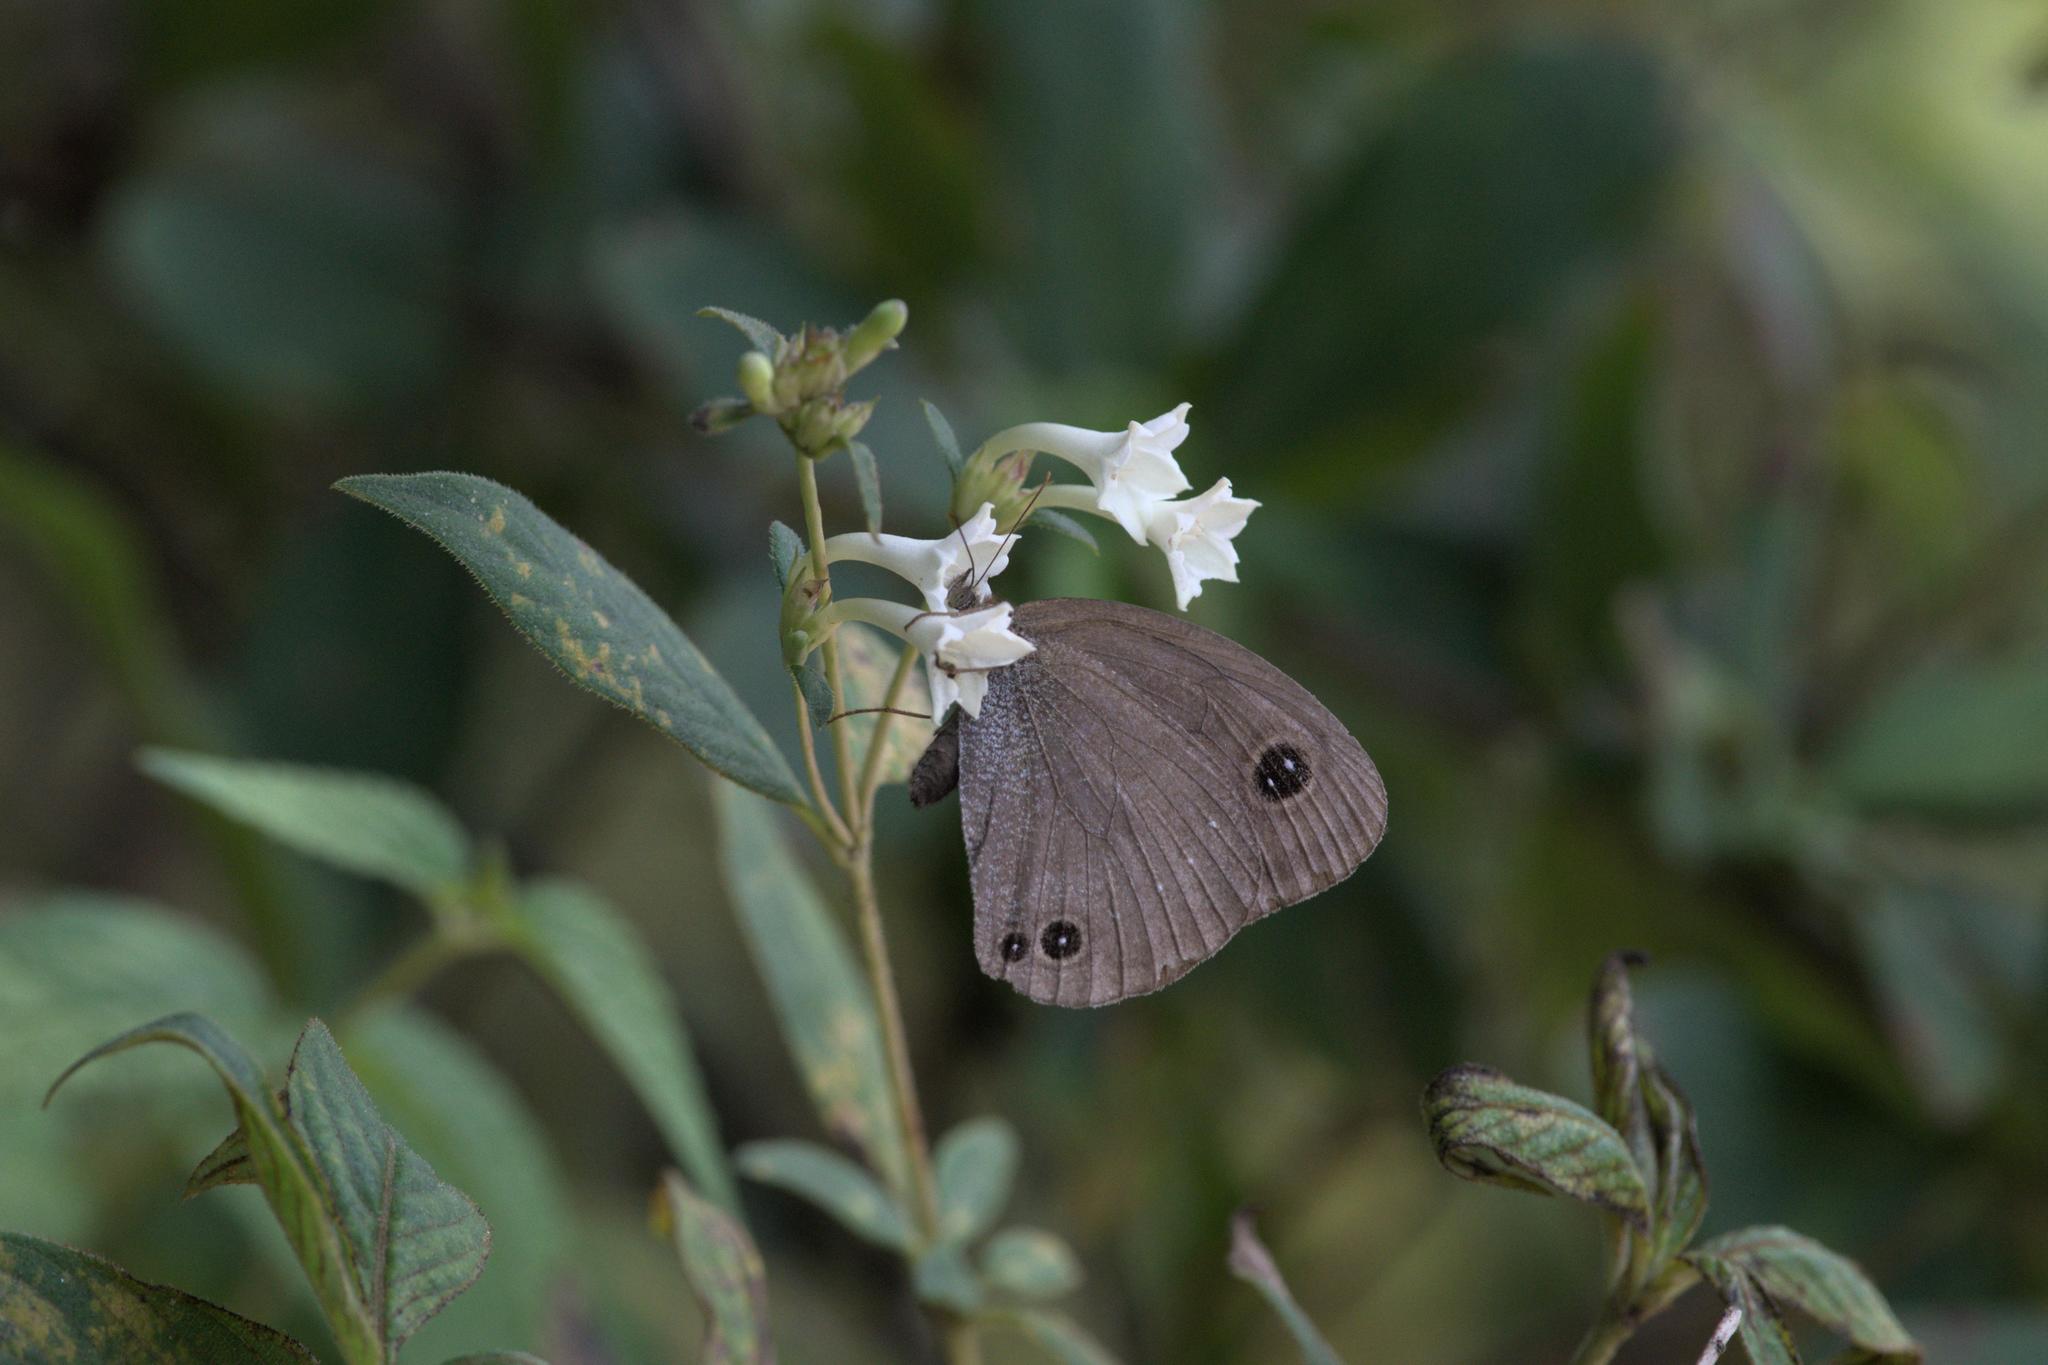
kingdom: Animalia
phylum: Arthropoda
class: Insecta
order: Lepidoptera
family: Nymphalidae
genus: Callerebia
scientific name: Callerebia scanda
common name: Pallid argus
